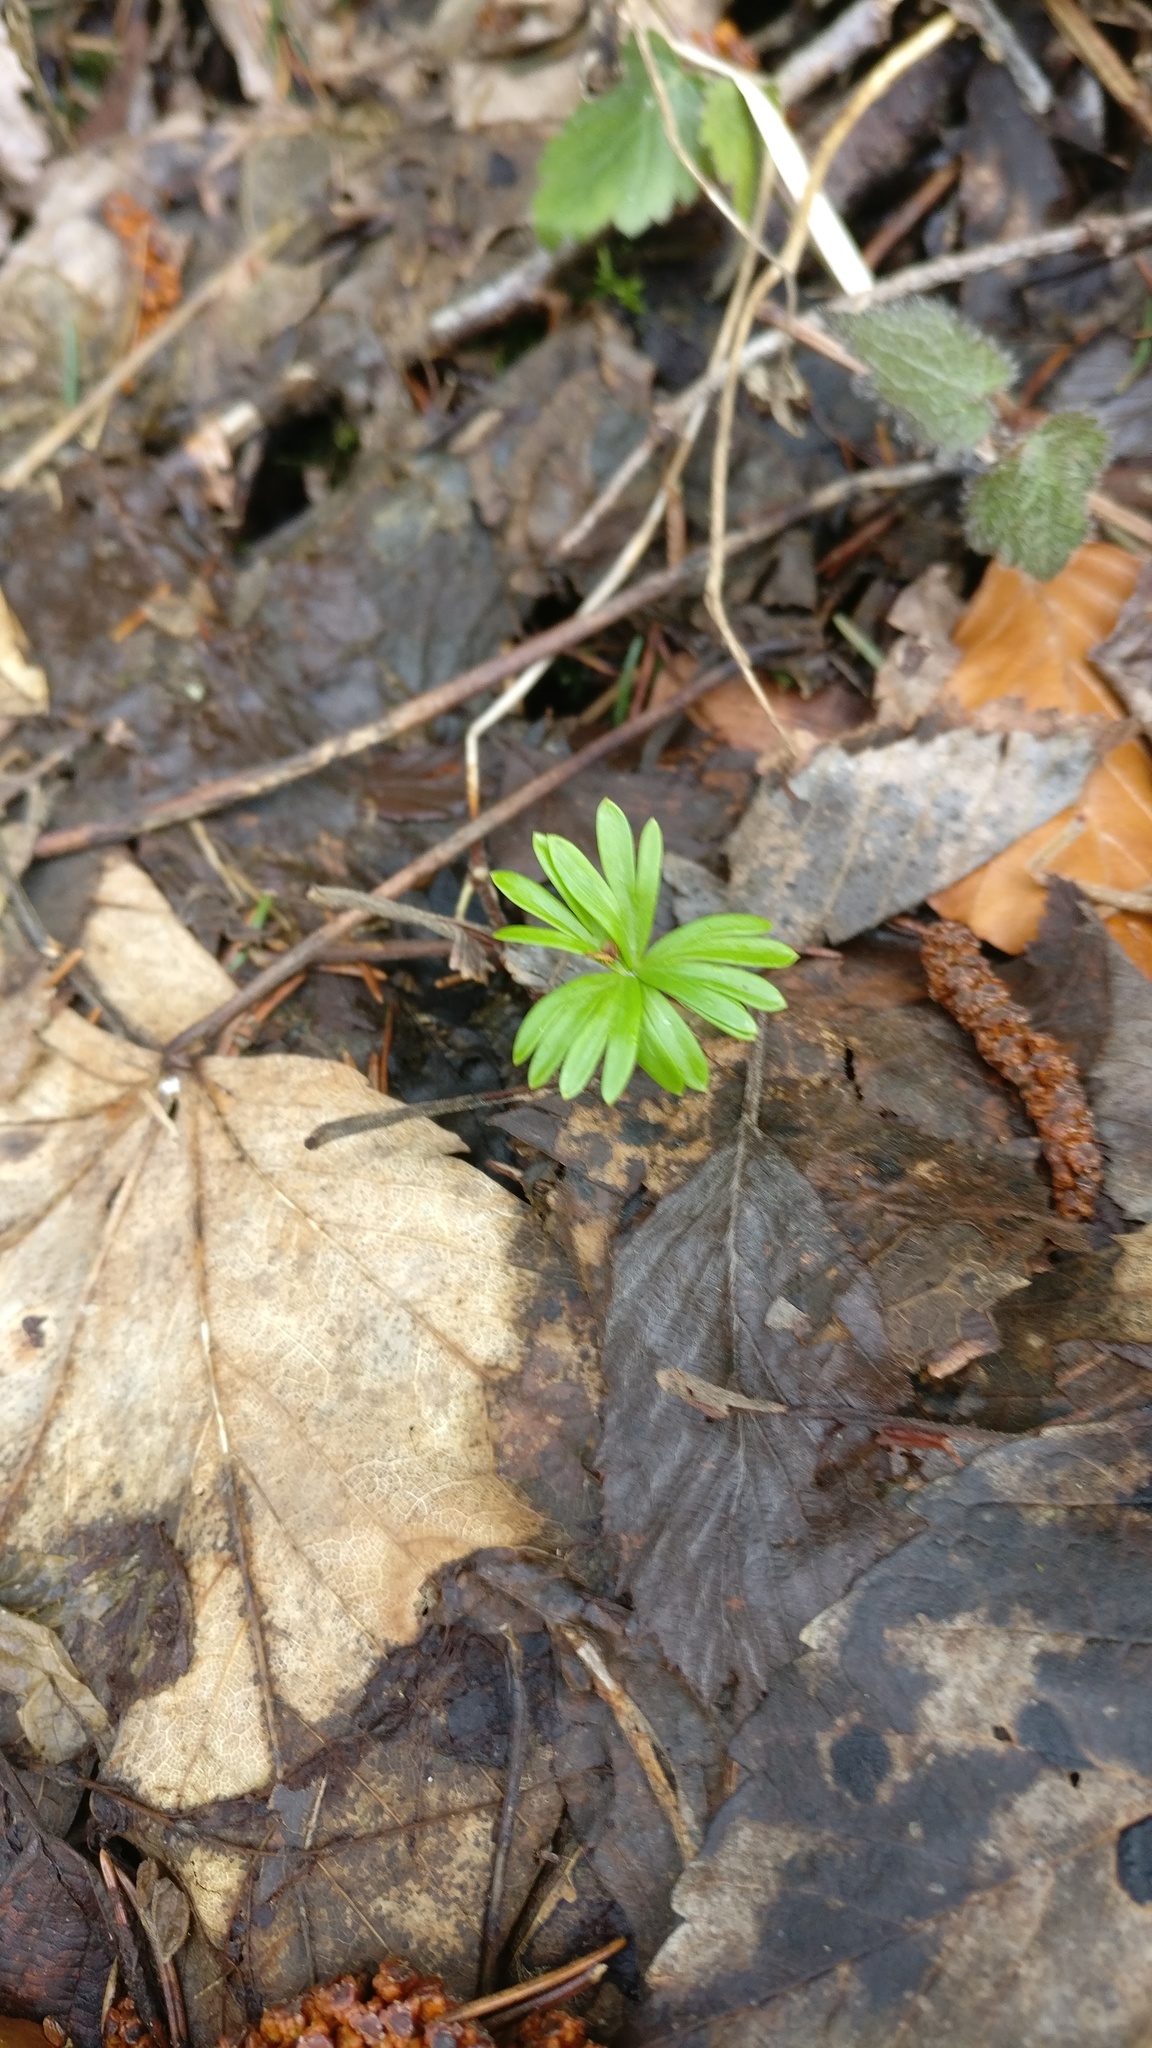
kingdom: Plantae
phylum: Tracheophyta
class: Magnoliopsida
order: Ranunculales
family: Ranunculaceae
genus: Eranthis
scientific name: Eranthis hyemalis
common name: Winter aconite
